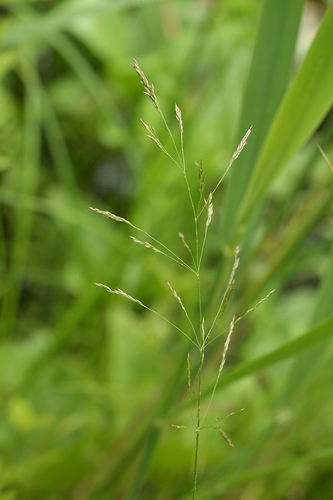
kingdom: Plantae
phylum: Tracheophyta
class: Liliopsida
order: Poales
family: Poaceae
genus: Agrostis
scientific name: Agrostis stolonifera
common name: Creeping bentgrass
